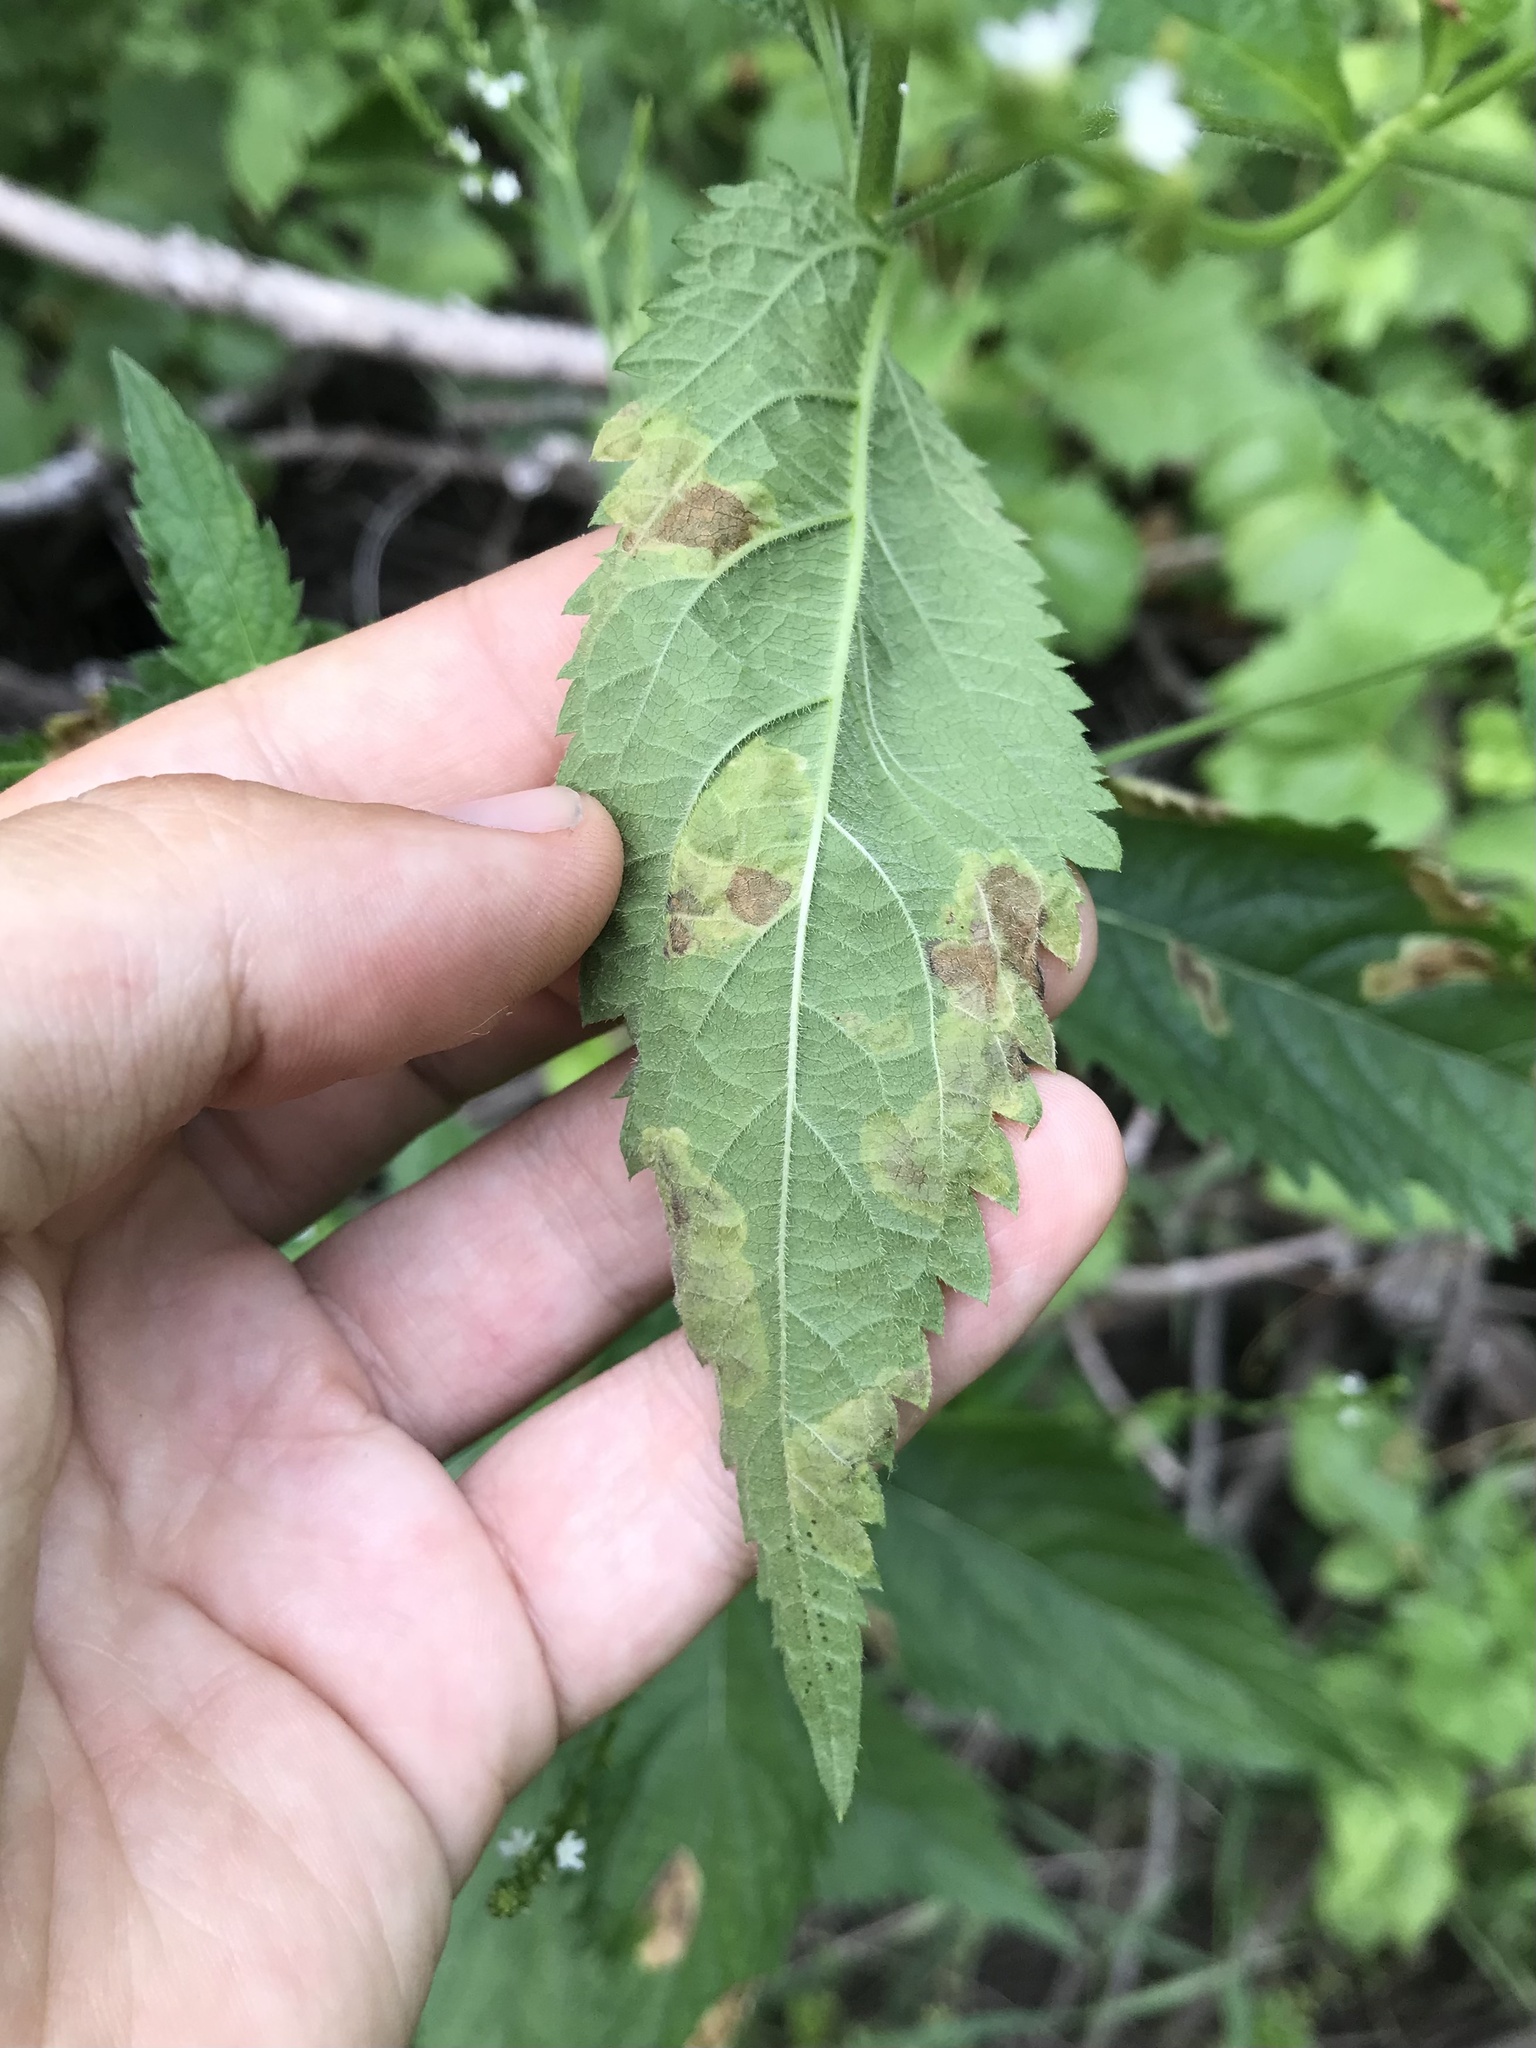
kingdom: Animalia
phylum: Arthropoda
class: Insecta
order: Diptera
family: Agromyzidae
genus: Calycomyza
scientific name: Calycomyza verbenae
